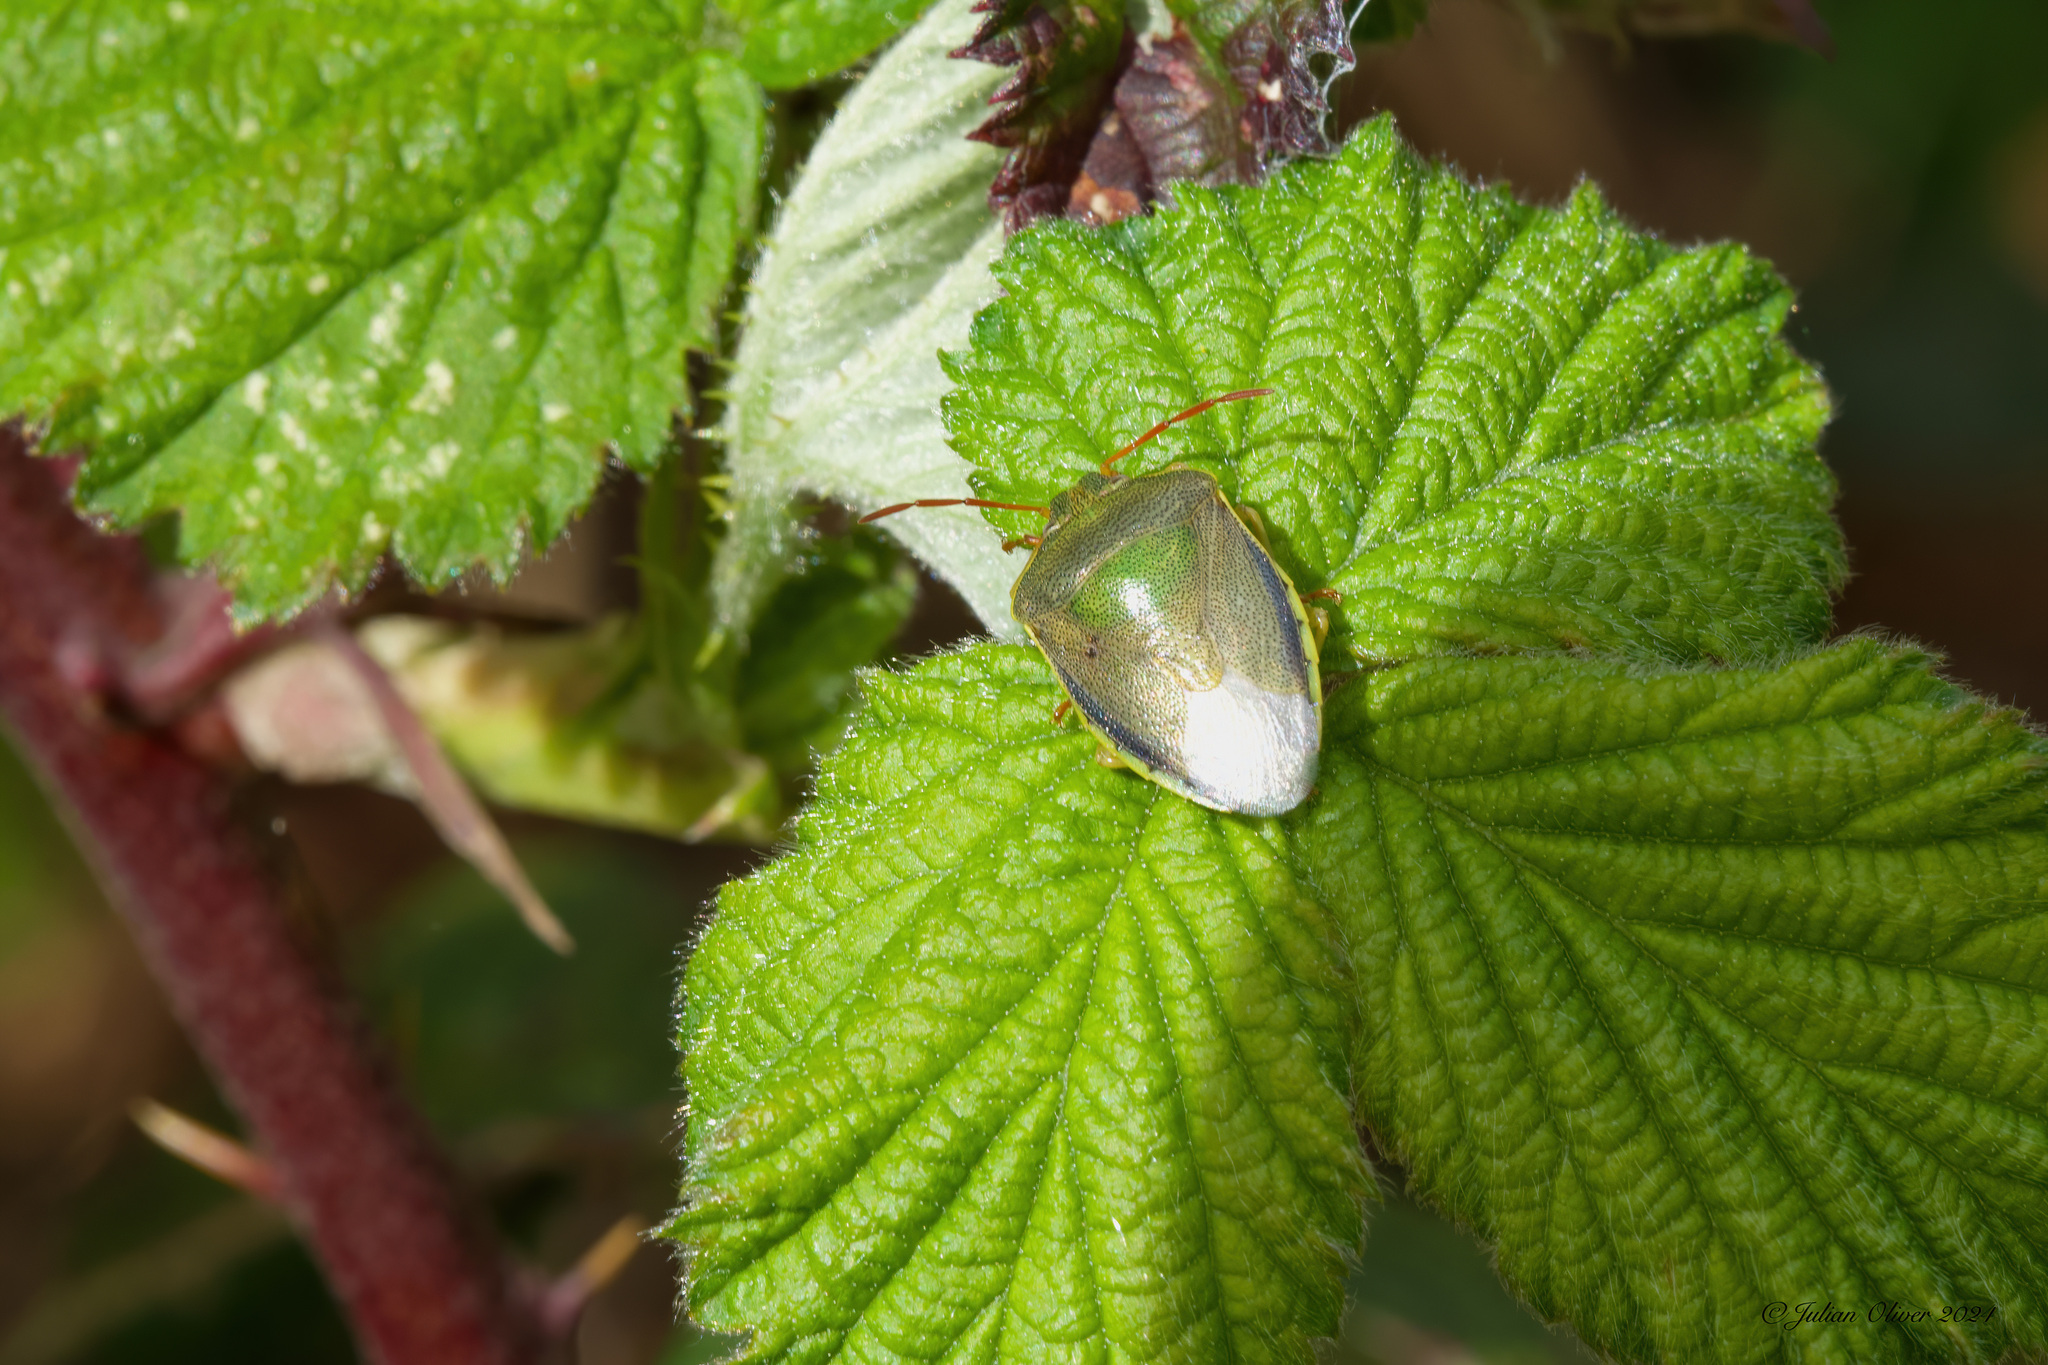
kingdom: Animalia
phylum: Arthropoda
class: Insecta
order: Hemiptera
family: Pentatomidae
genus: Piezodorus
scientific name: Piezodorus lituratus
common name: Stink bug
